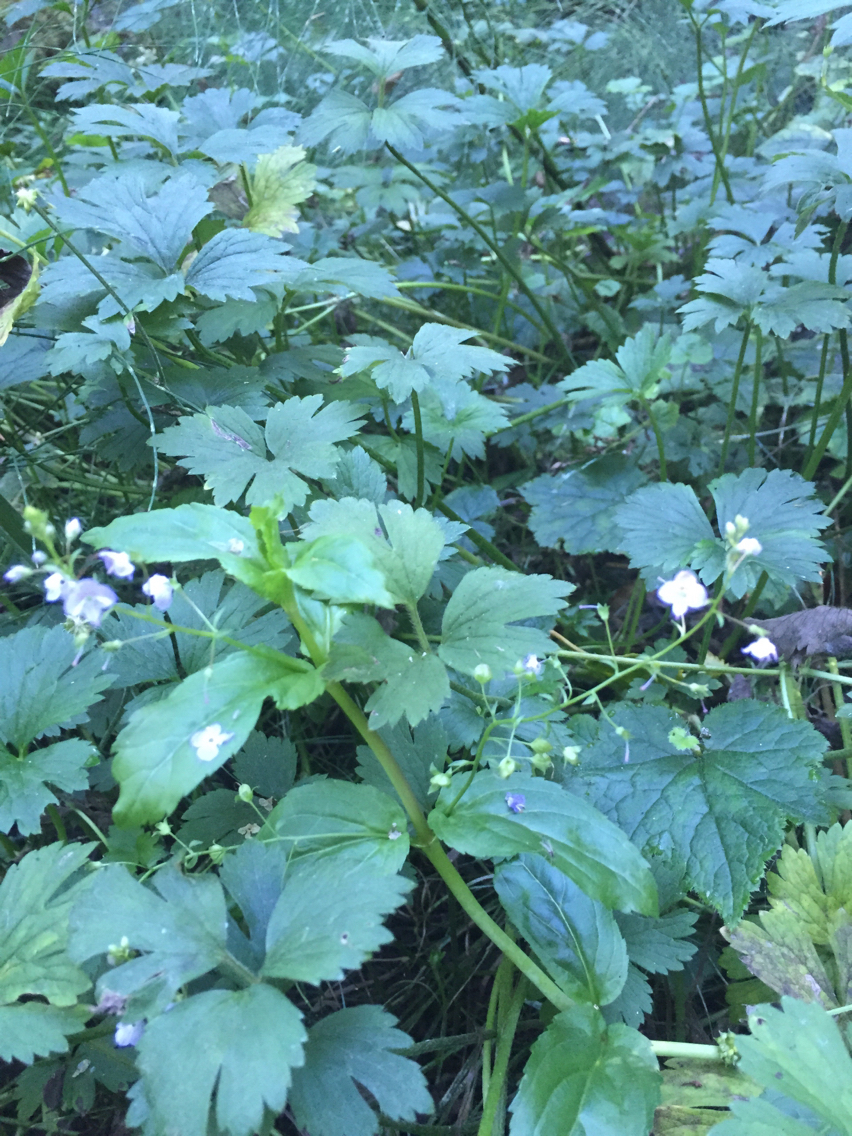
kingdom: Plantae
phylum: Tracheophyta
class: Magnoliopsida
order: Lamiales
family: Plantaginaceae
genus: Veronica
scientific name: Veronica americana
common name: American brooklime
